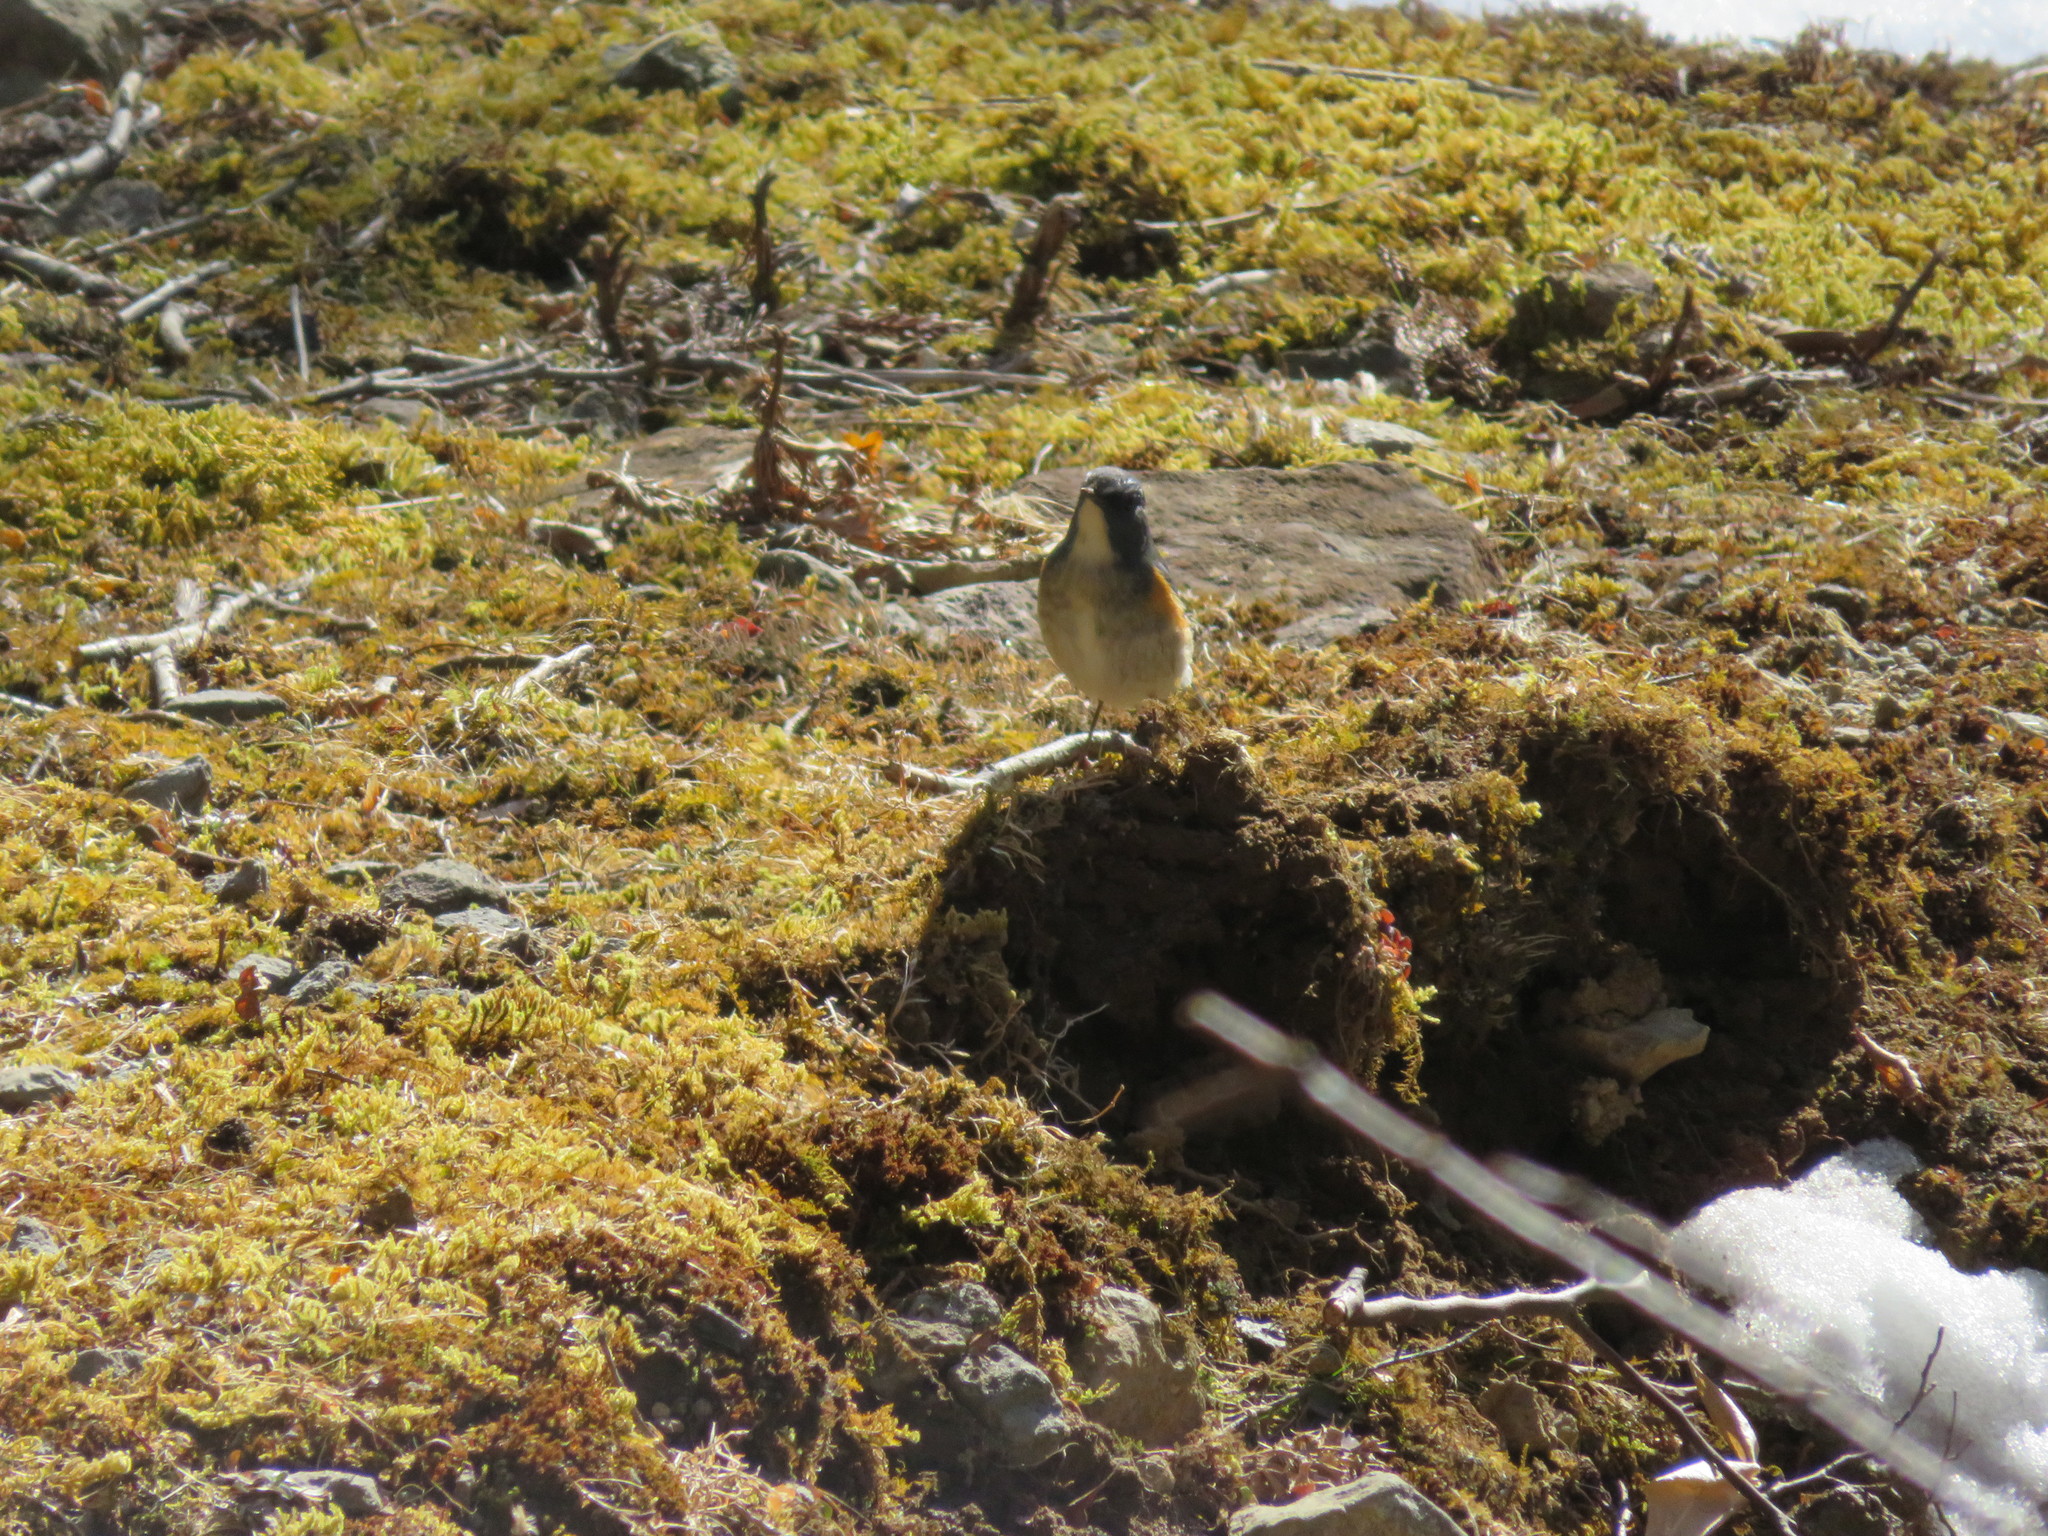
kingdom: Animalia
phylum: Chordata
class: Aves
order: Passeriformes
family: Muscicapidae
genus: Tarsiger
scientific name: Tarsiger cyanurus
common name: Red-flanked bluetail
